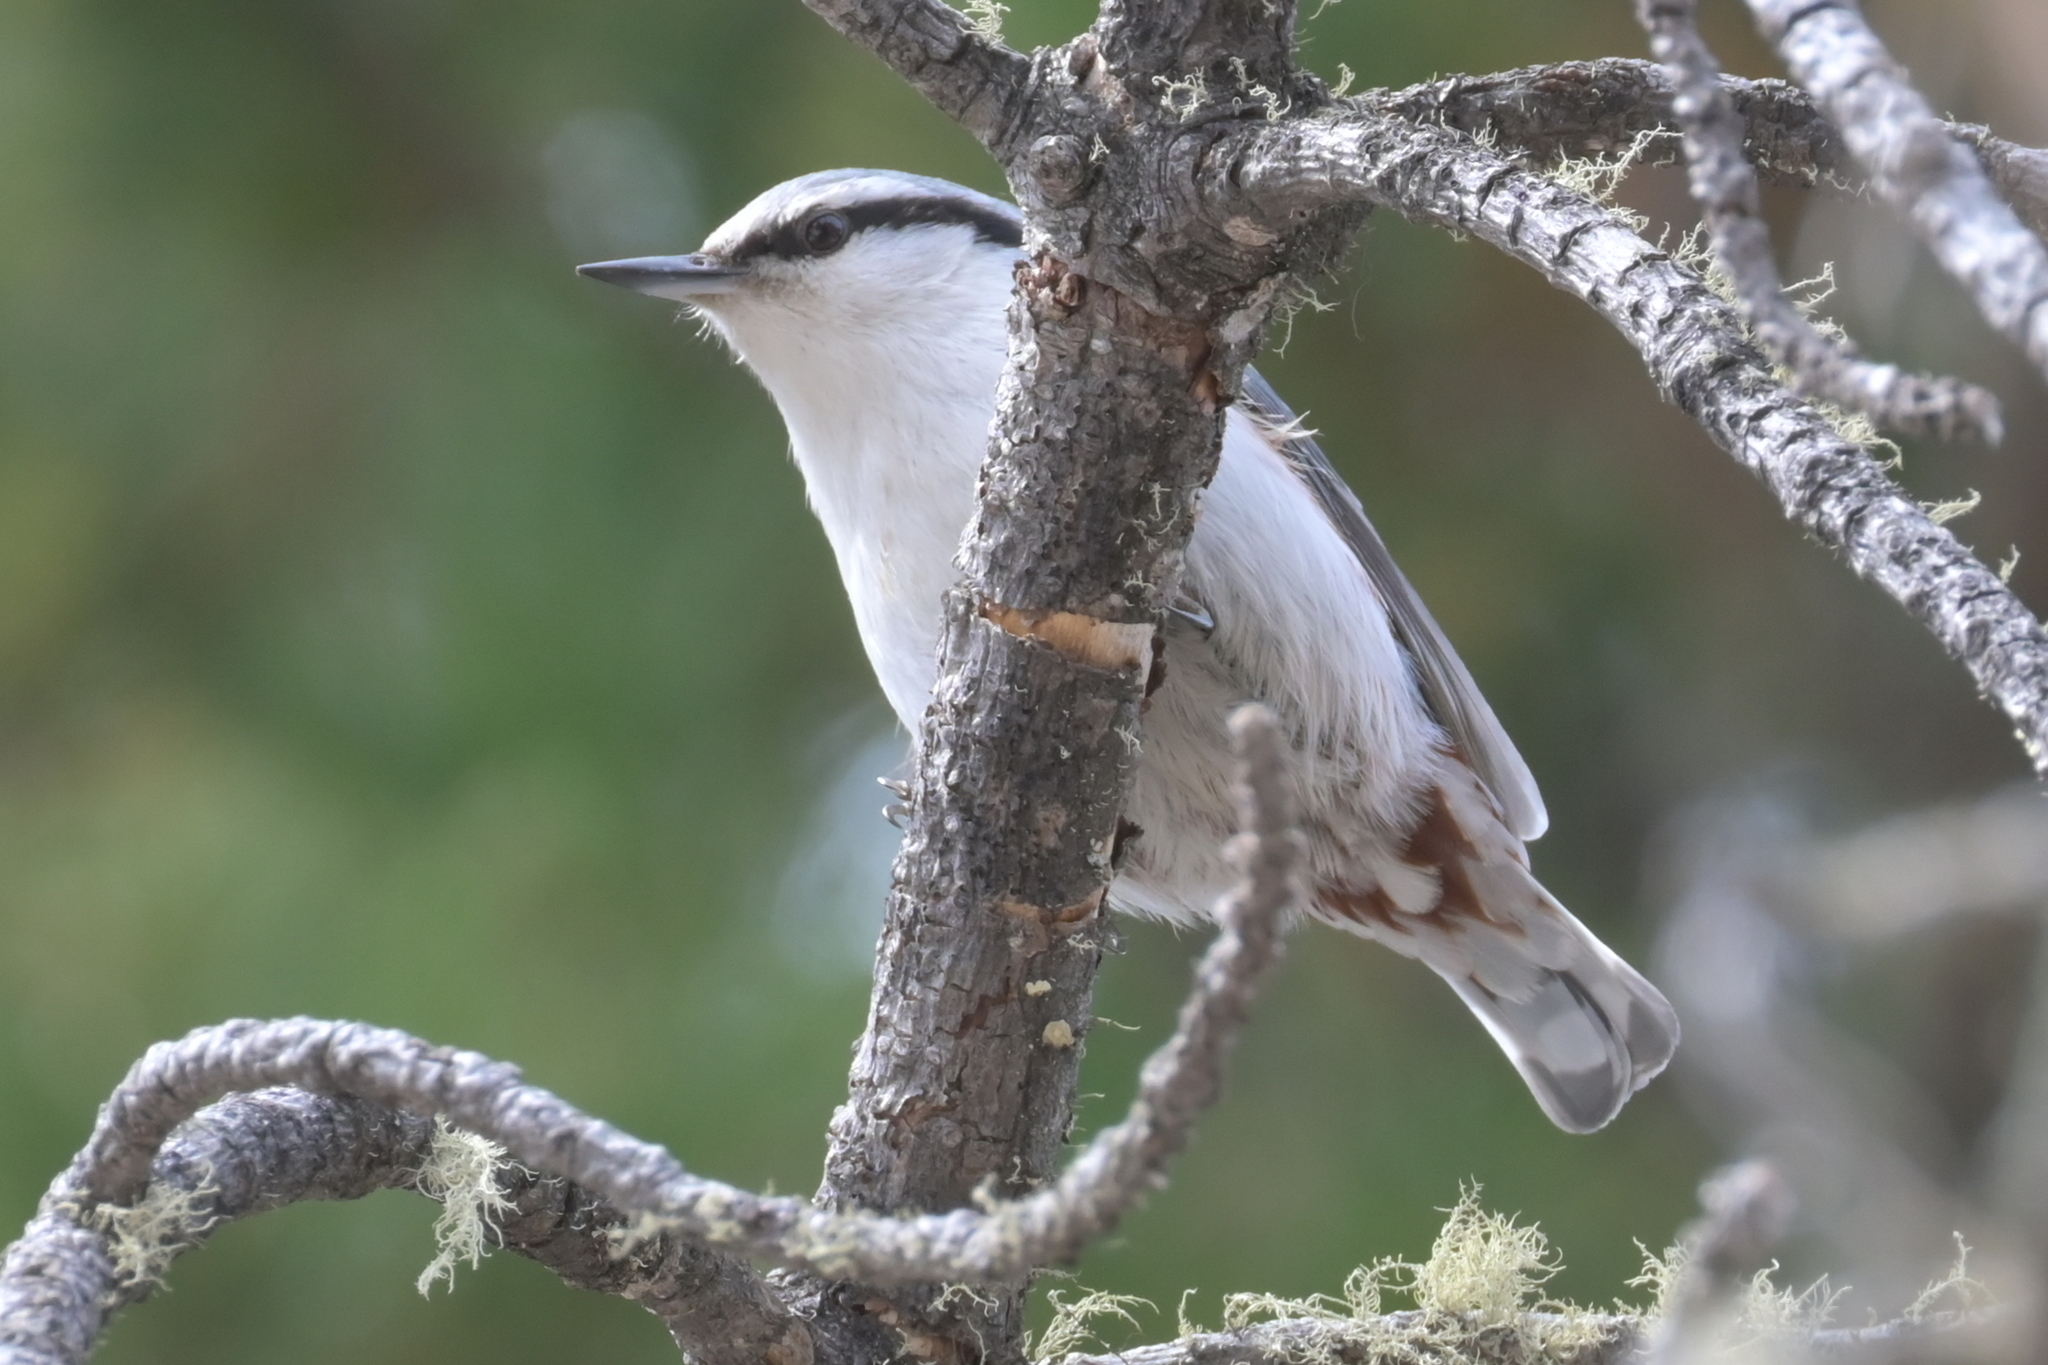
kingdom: Animalia
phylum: Chordata
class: Aves
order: Passeriformes
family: Sittidae
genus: Sitta
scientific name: Sitta europaea
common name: Eurasian nuthatch
